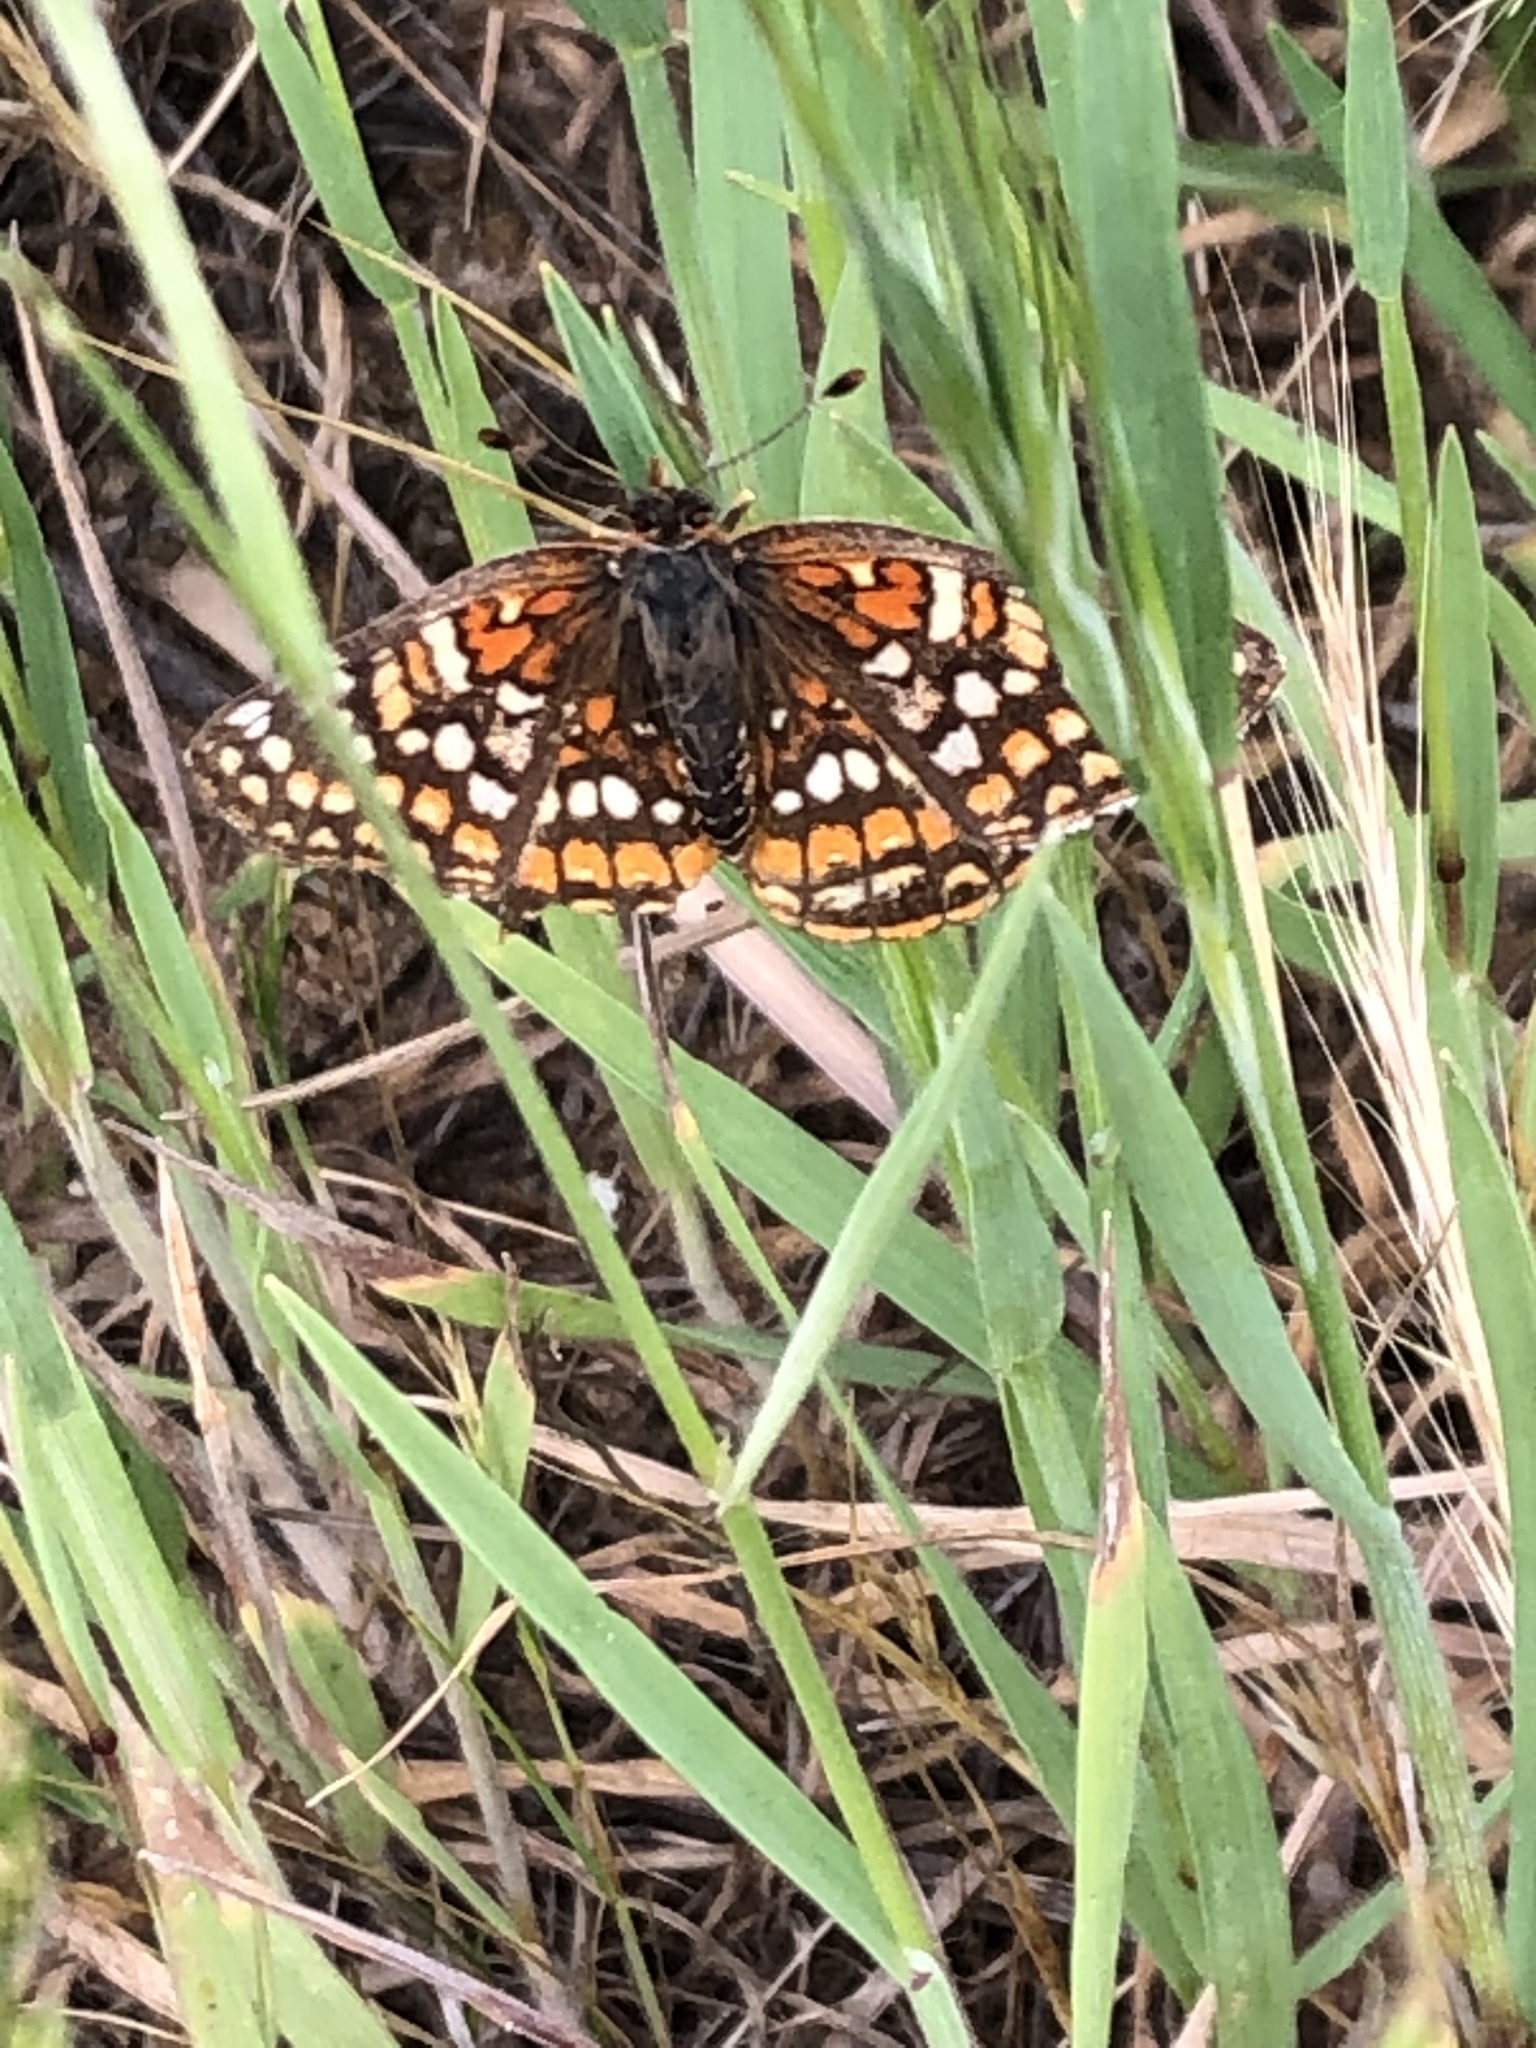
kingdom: Animalia
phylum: Arthropoda
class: Insecta
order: Lepidoptera
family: Nymphalidae
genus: Chlosyne
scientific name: Chlosyne gabbii
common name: Gabb's checkerspot
